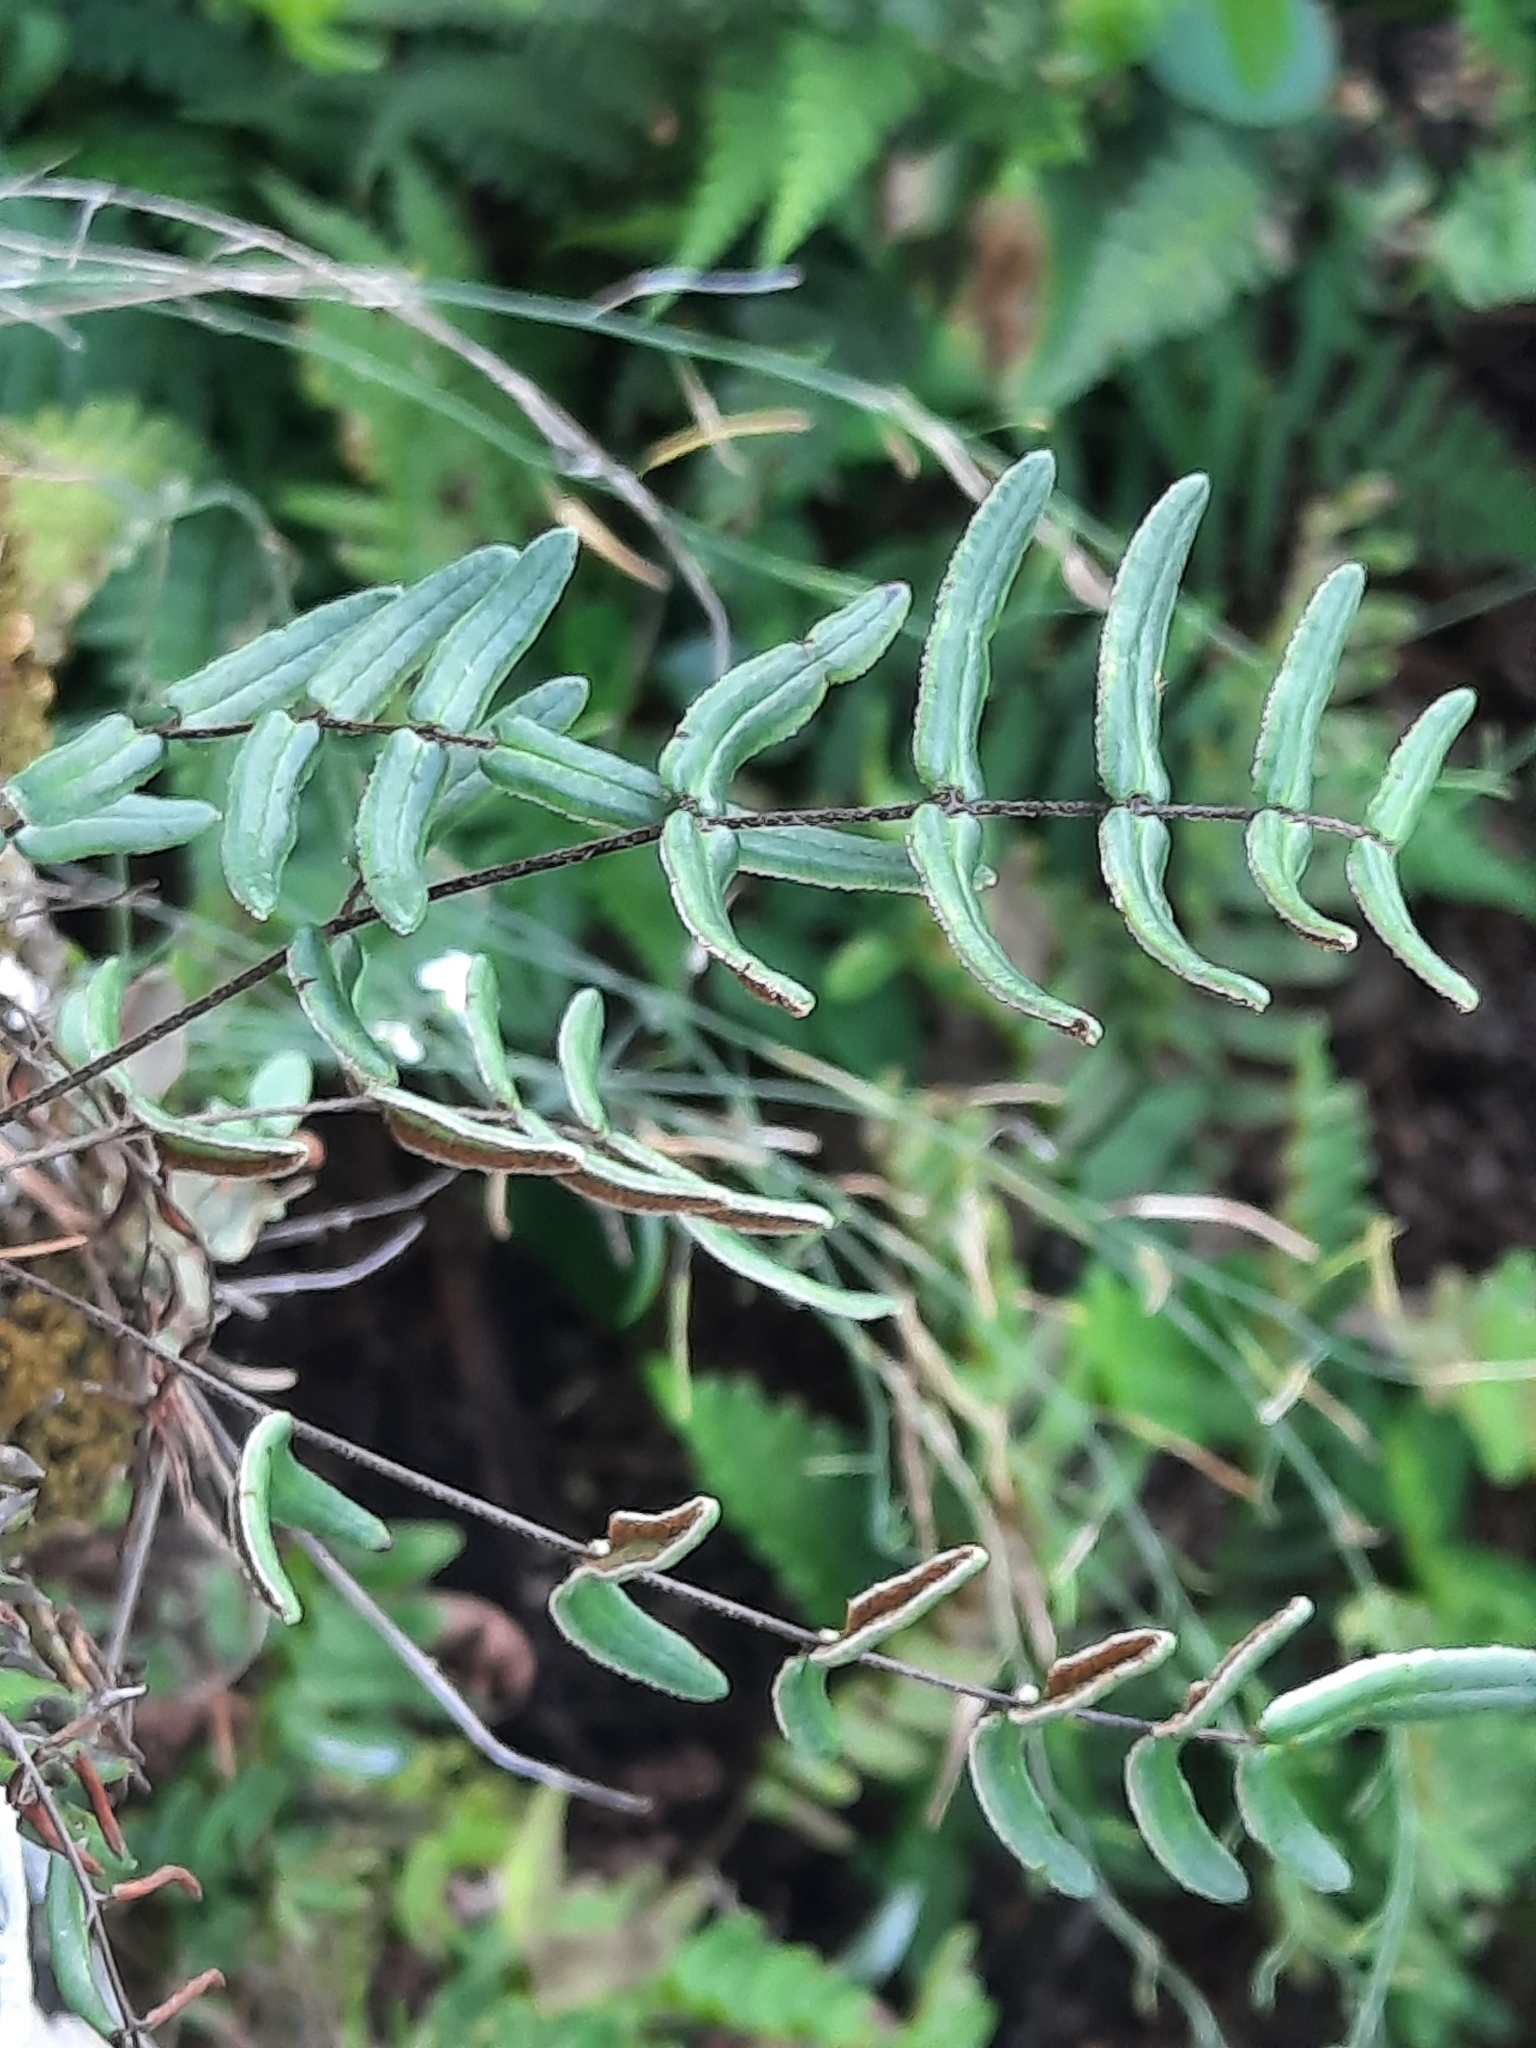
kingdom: Plantae
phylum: Tracheophyta
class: Polypodiopsida
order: Polypodiales
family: Pteridaceae
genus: Pellaea
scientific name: Pellaea atropurpurea
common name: Hairy cliffbrake
